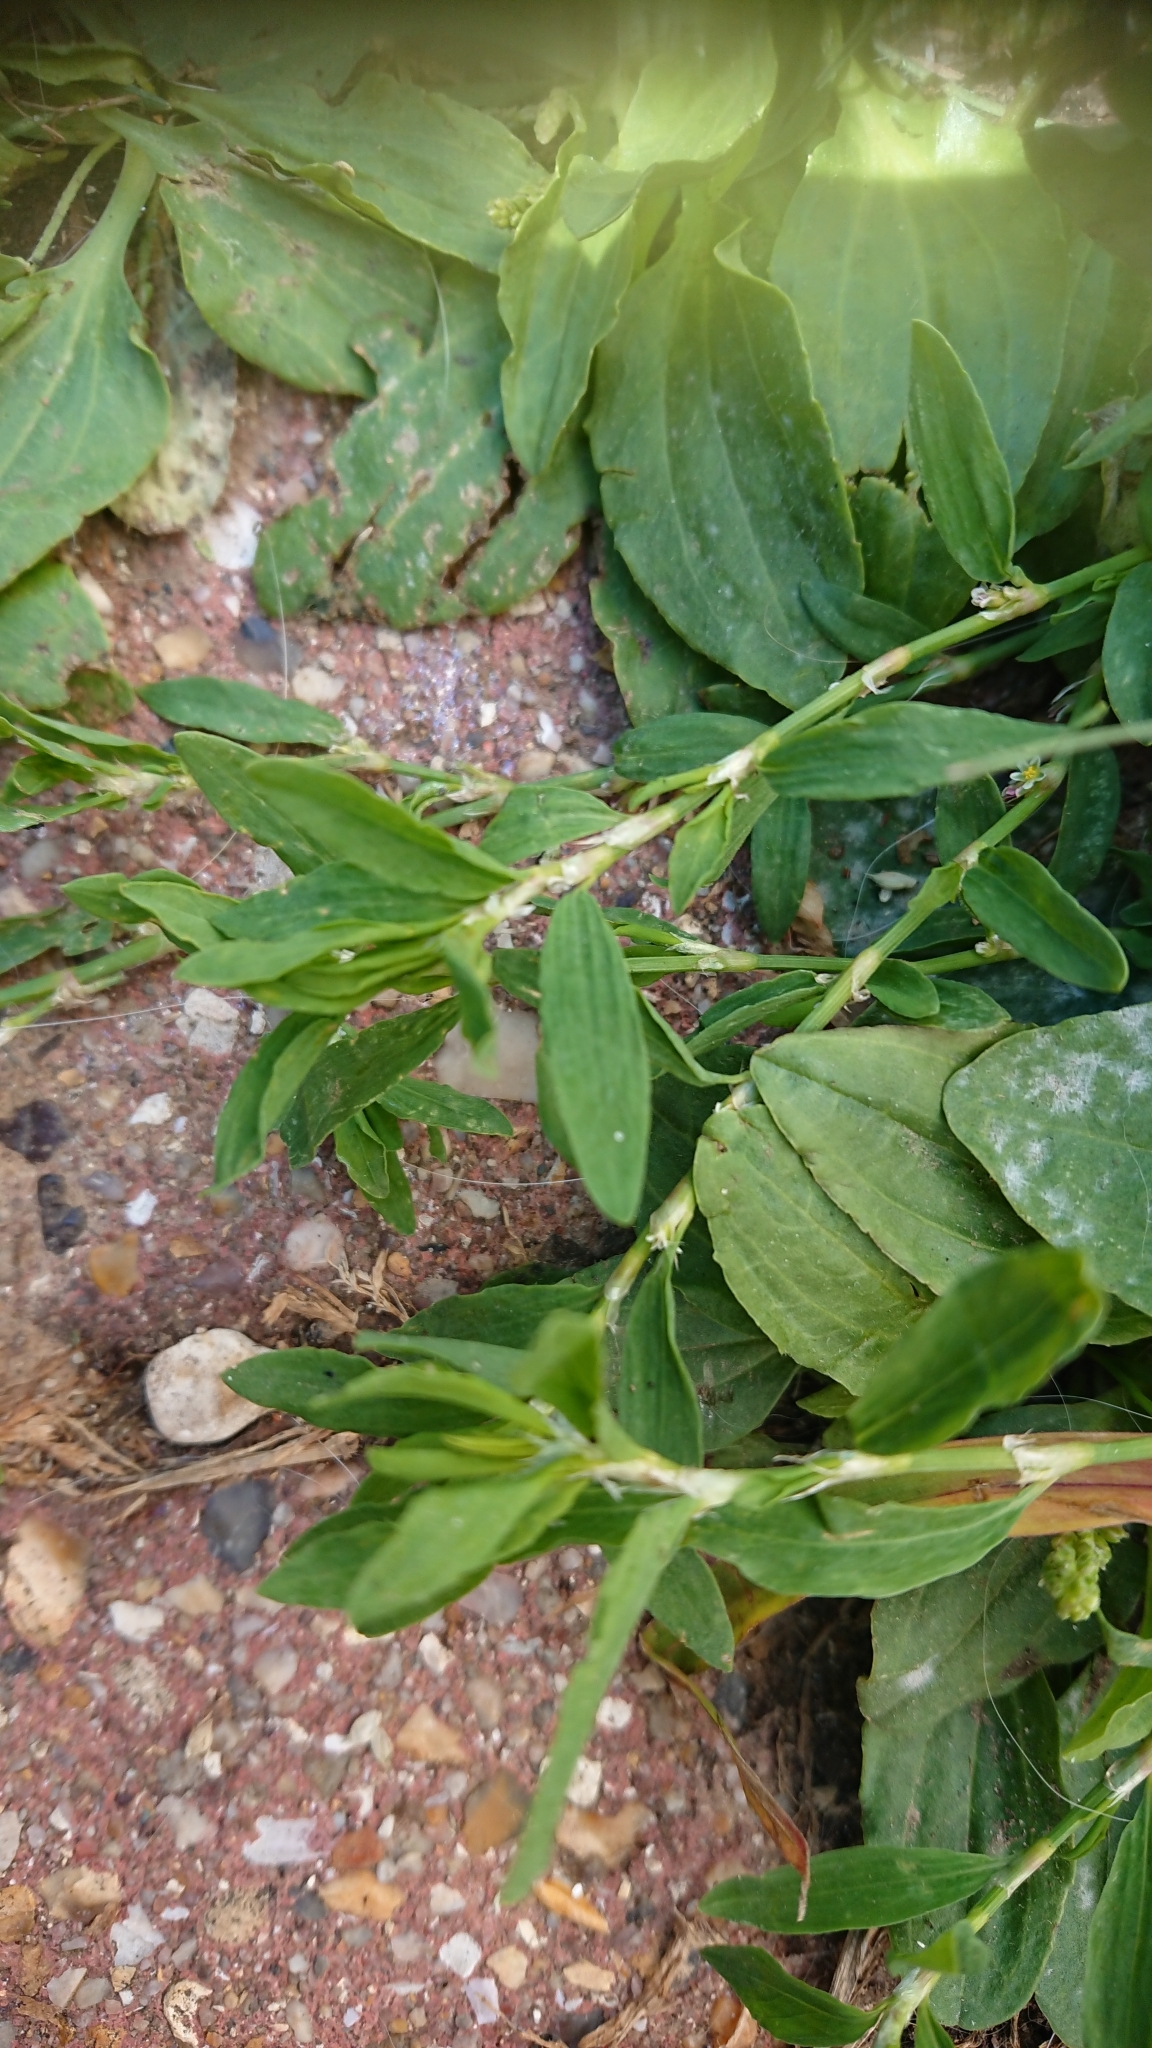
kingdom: Plantae
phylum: Tracheophyta
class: Magnoliopsida
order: Caryophyllales
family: Polygonaceae
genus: Polygonum
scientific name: Polygonum aviculare
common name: Prostrate knotweed
